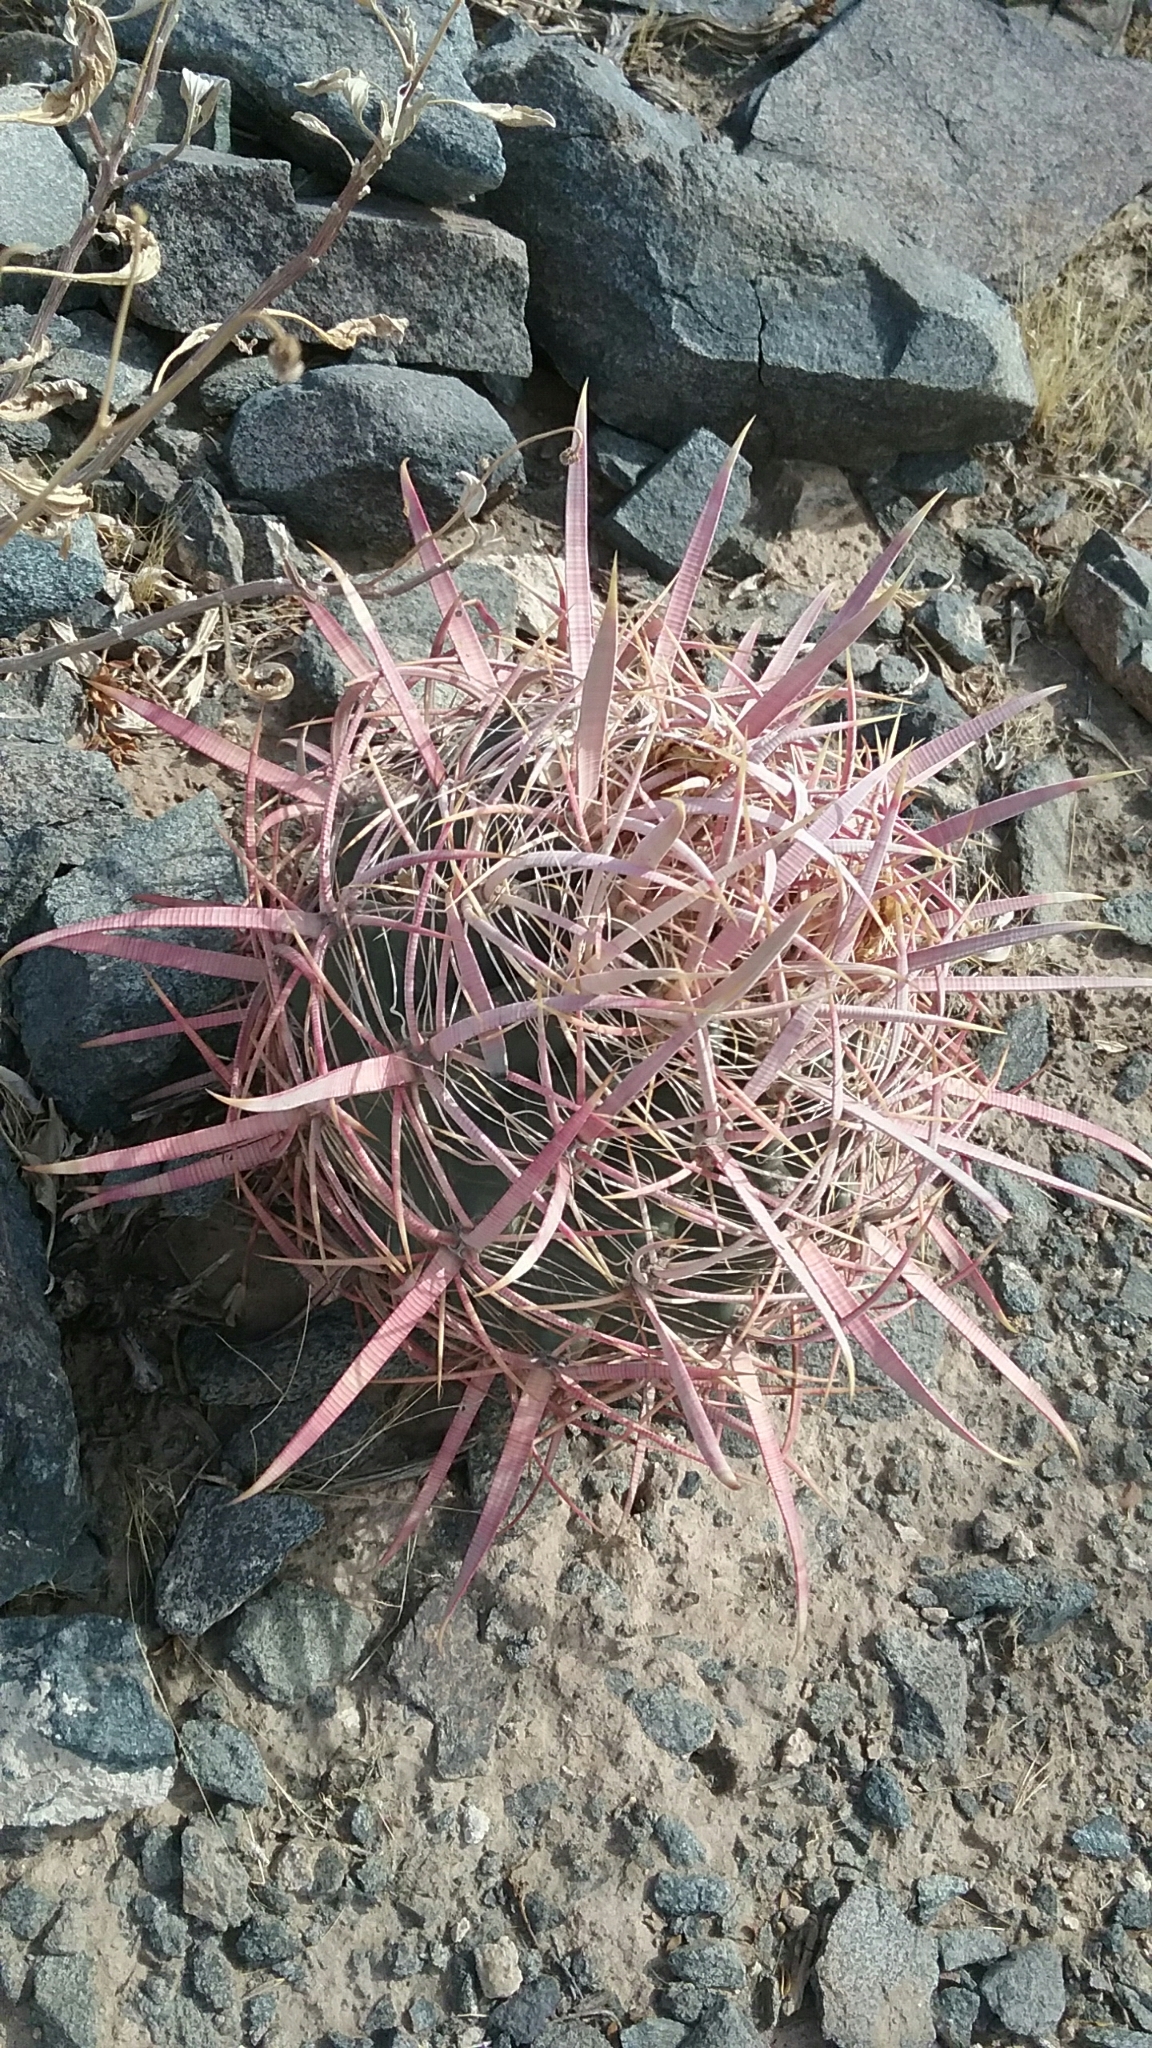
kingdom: Plantae
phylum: Tracheophyta
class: Magnoliopsida
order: Caryophyllales
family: Cactaceae
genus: Ferocactus
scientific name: Ferocactus cylindraceus
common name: California barrel cactus
